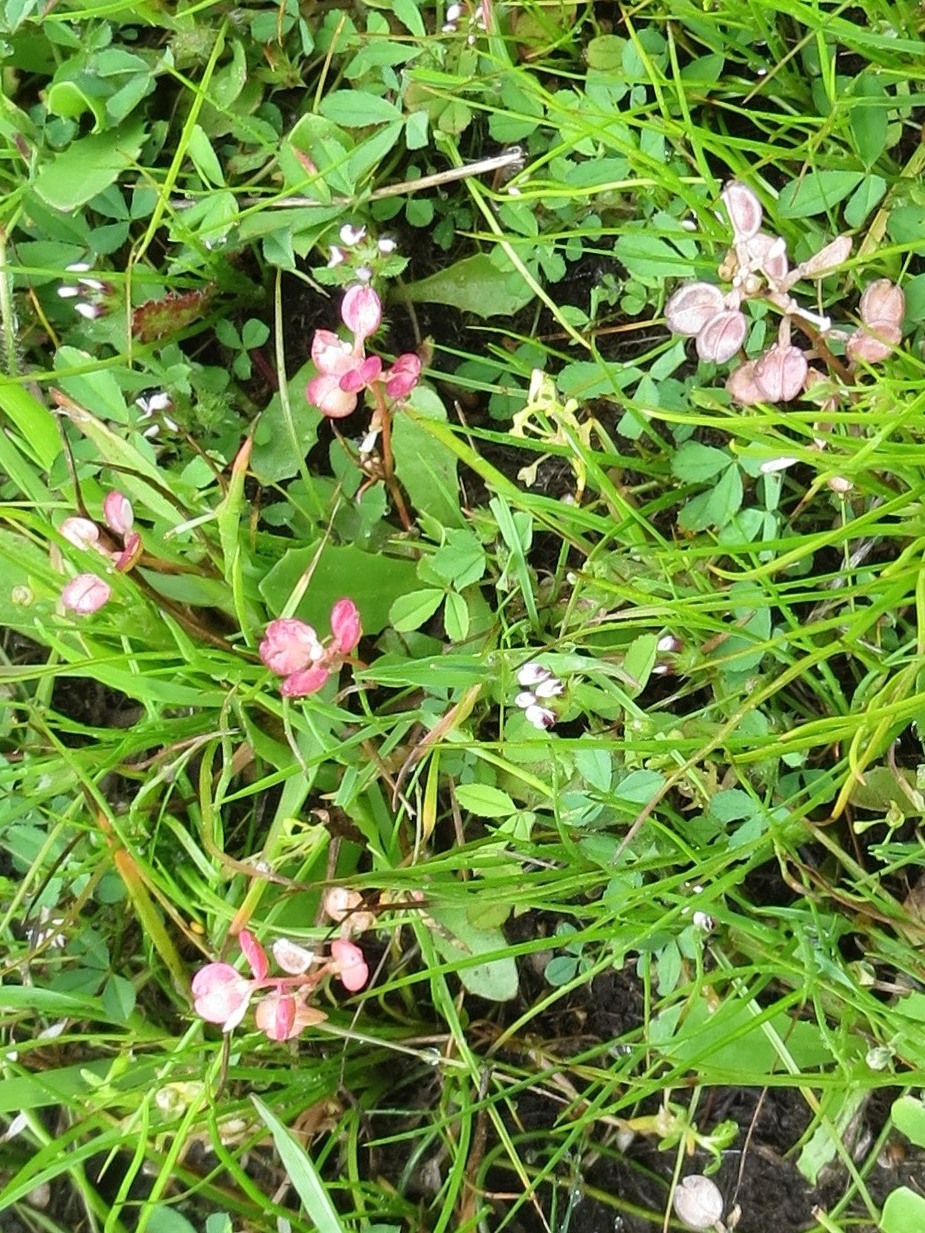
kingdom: Plantae
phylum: Tracheophyta
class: Magnoliopsida
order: Brassicales
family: Brassicaceae
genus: Lepidium
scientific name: Lepidium nitidum
